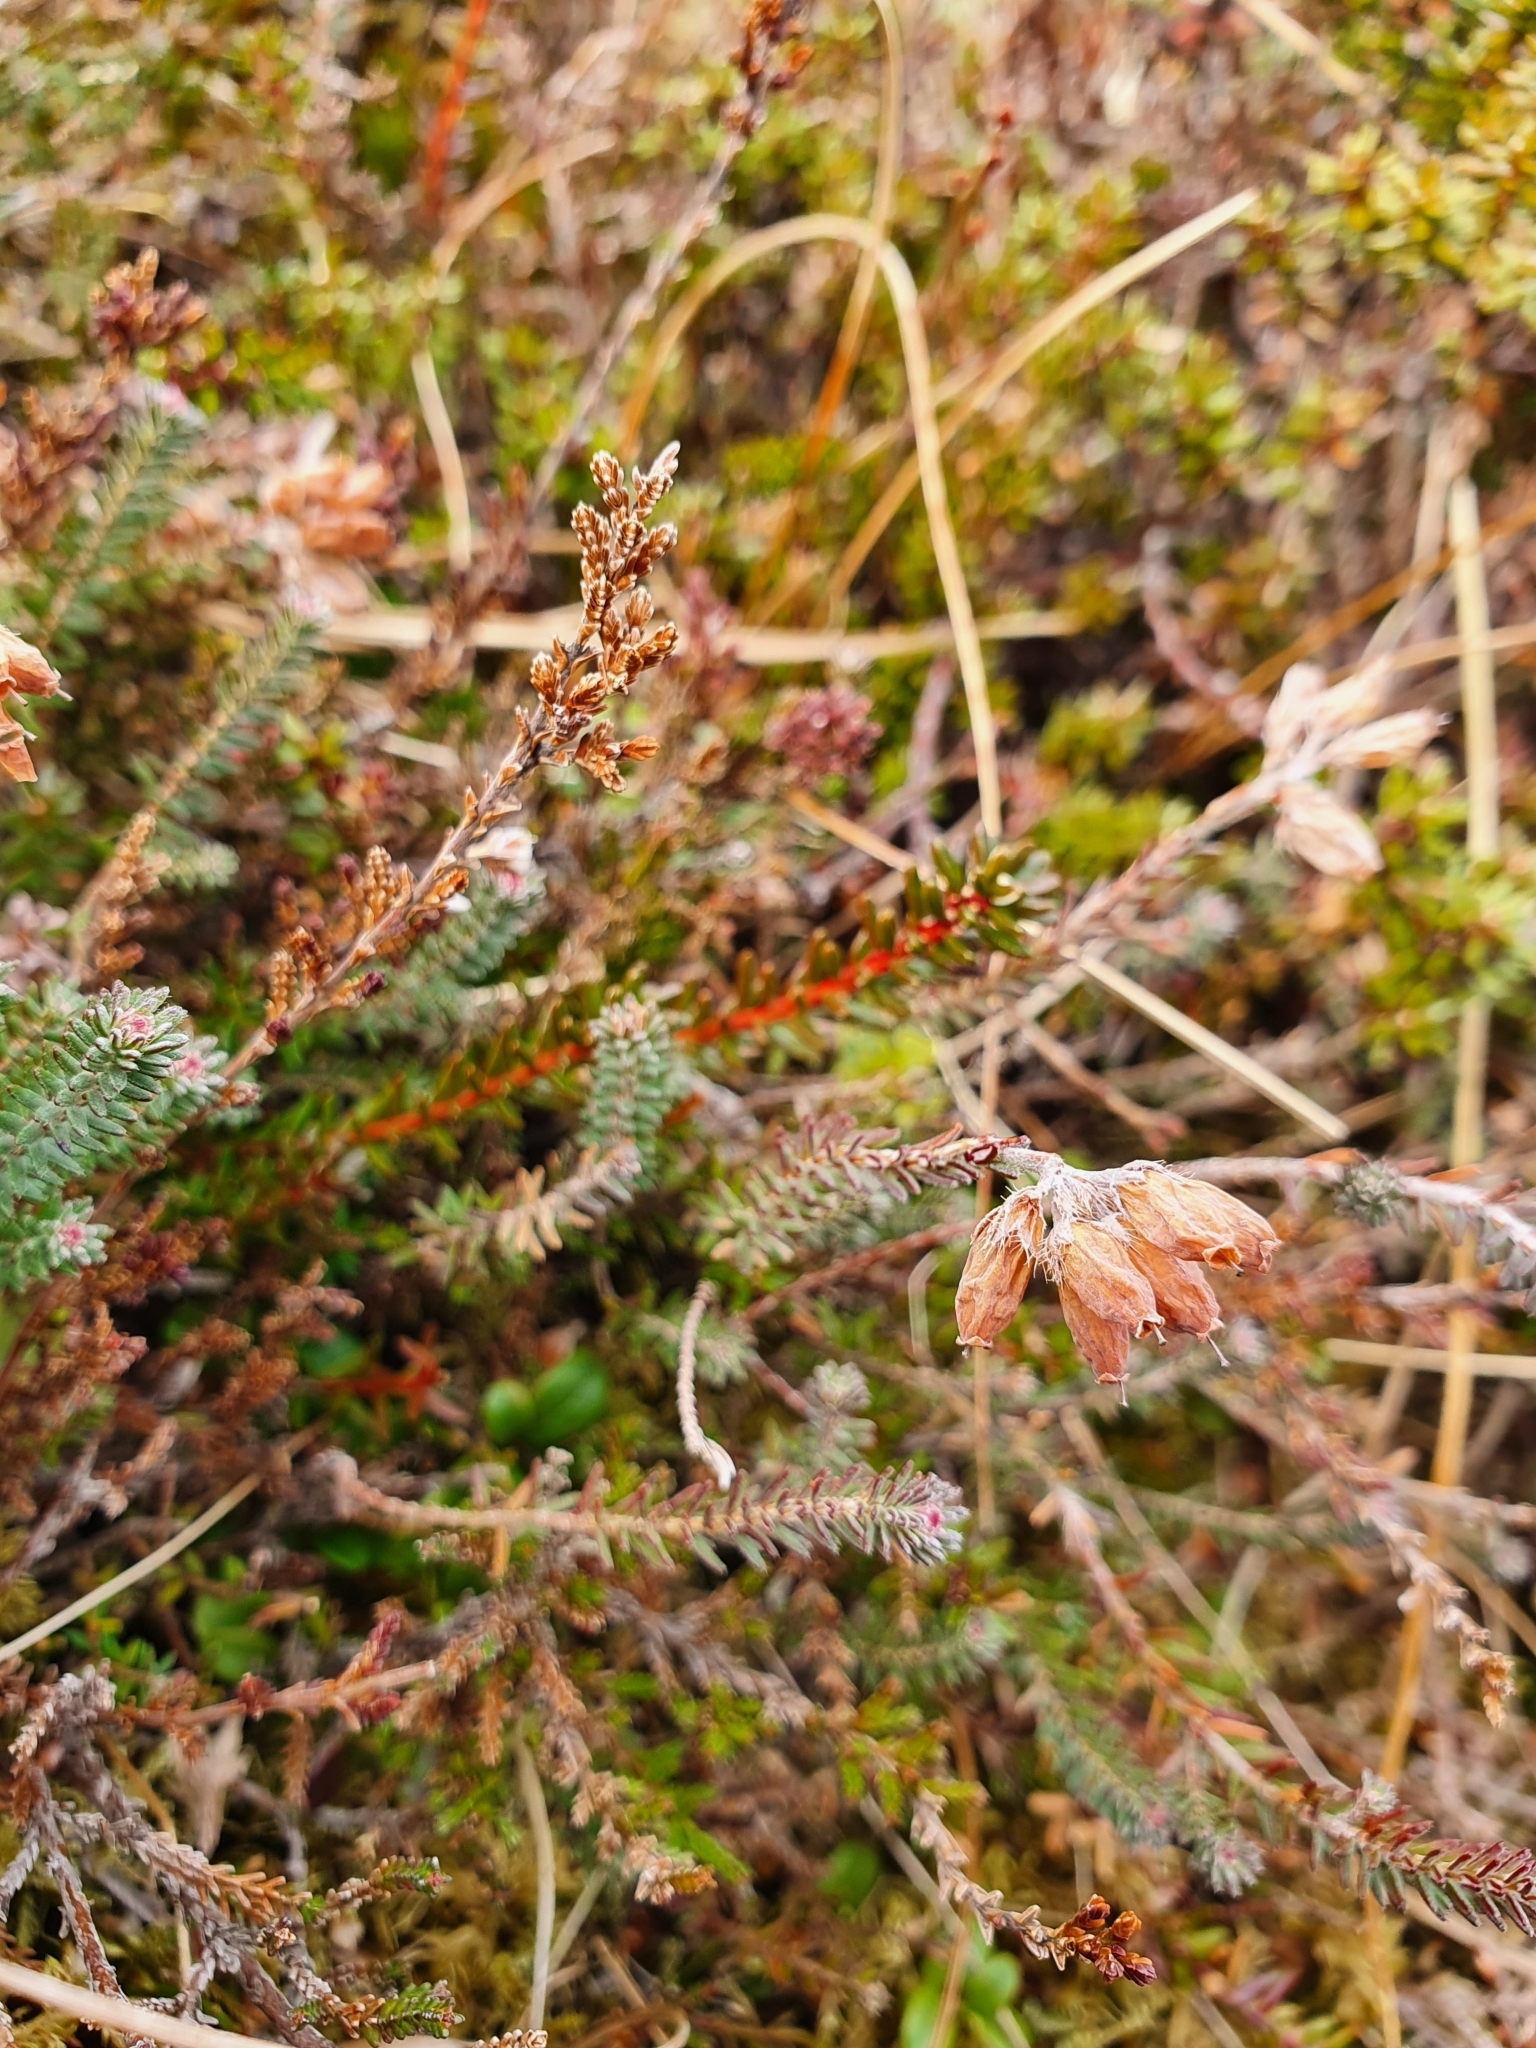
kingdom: Plantae
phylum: Tracheophyta
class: Magnoliopsida
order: Ericales
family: Ericaceae
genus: Erica
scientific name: Erica tetralix
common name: Cross-leaved heath
